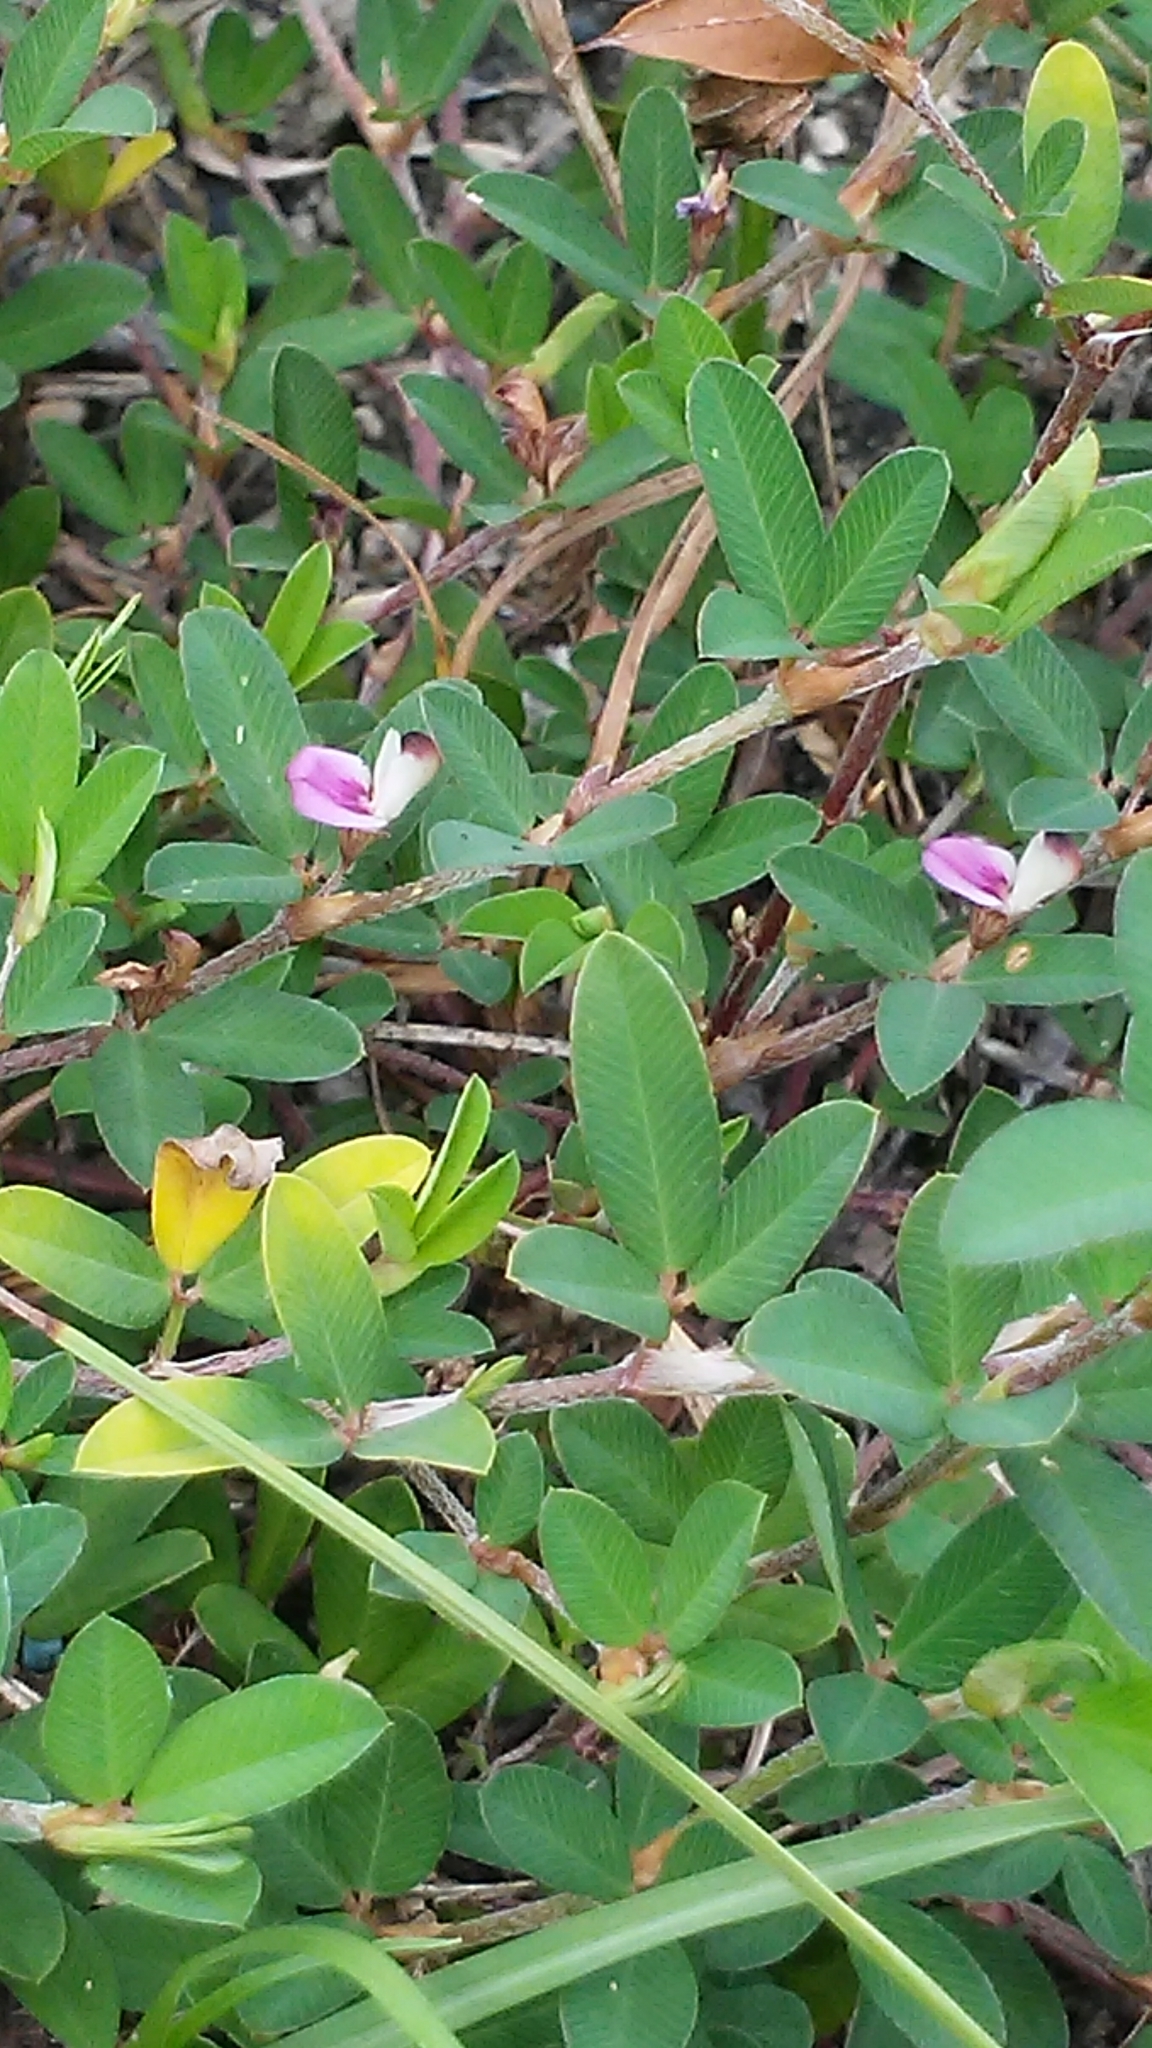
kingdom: Plantae
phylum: Tracheophyta
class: Magnoliopsida
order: Fabales
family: Fabaceae
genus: Kummerowia
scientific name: Kummerowia striata
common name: Japanese clover
